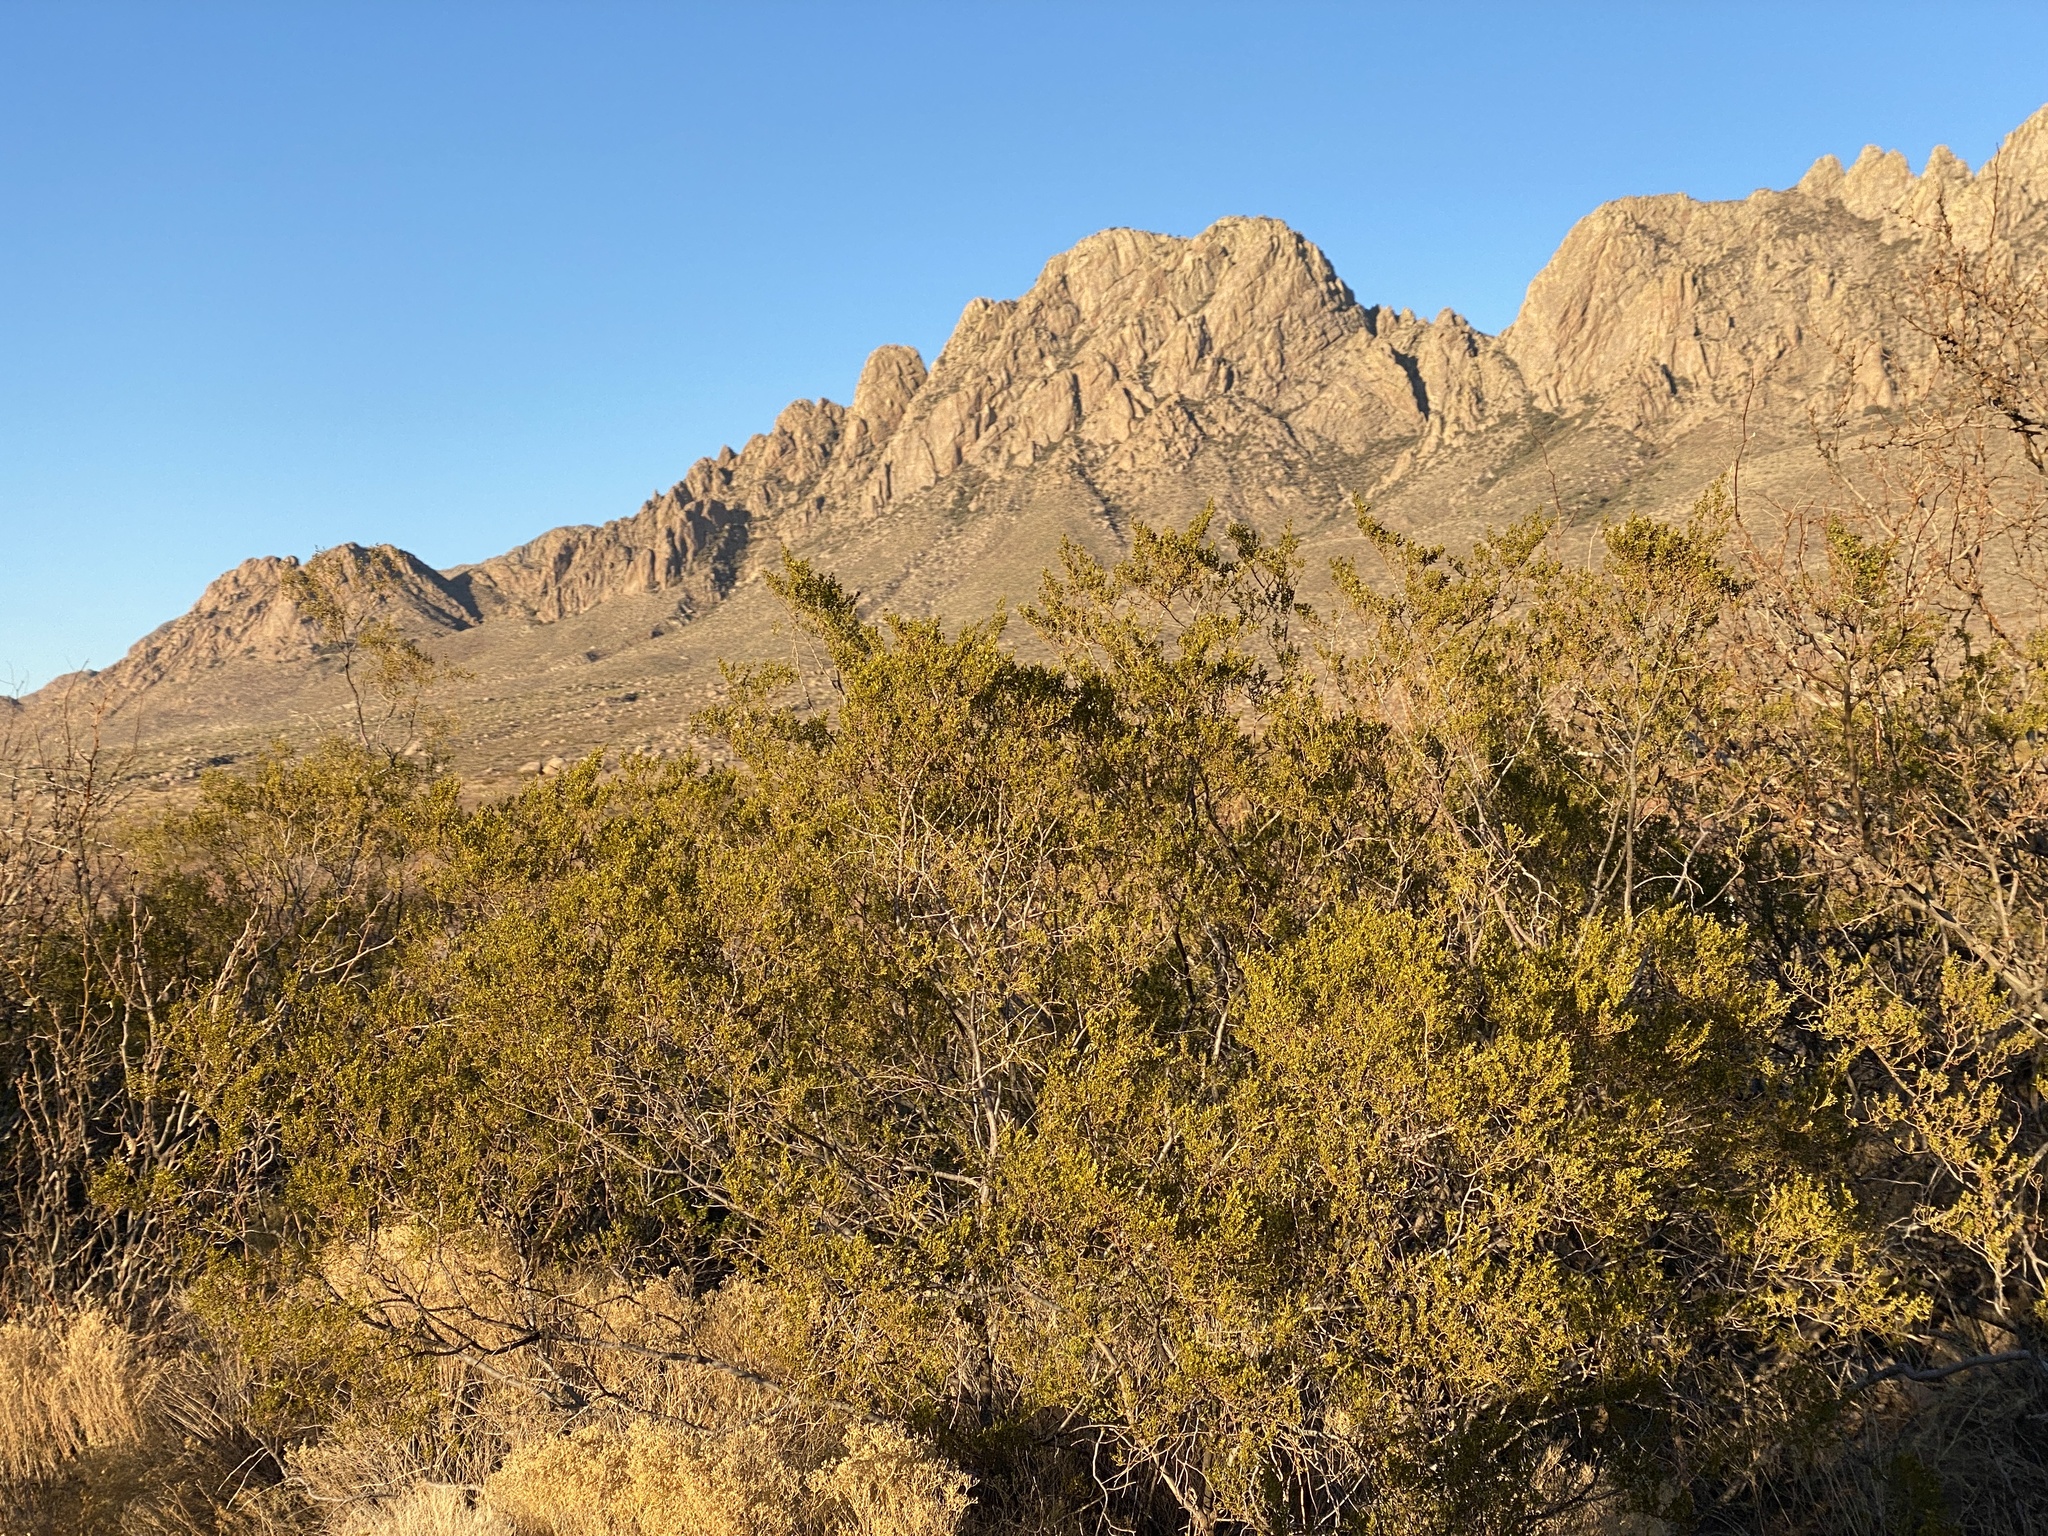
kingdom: Plantae
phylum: Tracheophyta
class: Magnoliopsida
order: Zygophyllales
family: Zygophyllaceae
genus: Larrea
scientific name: Larrea tridentata
